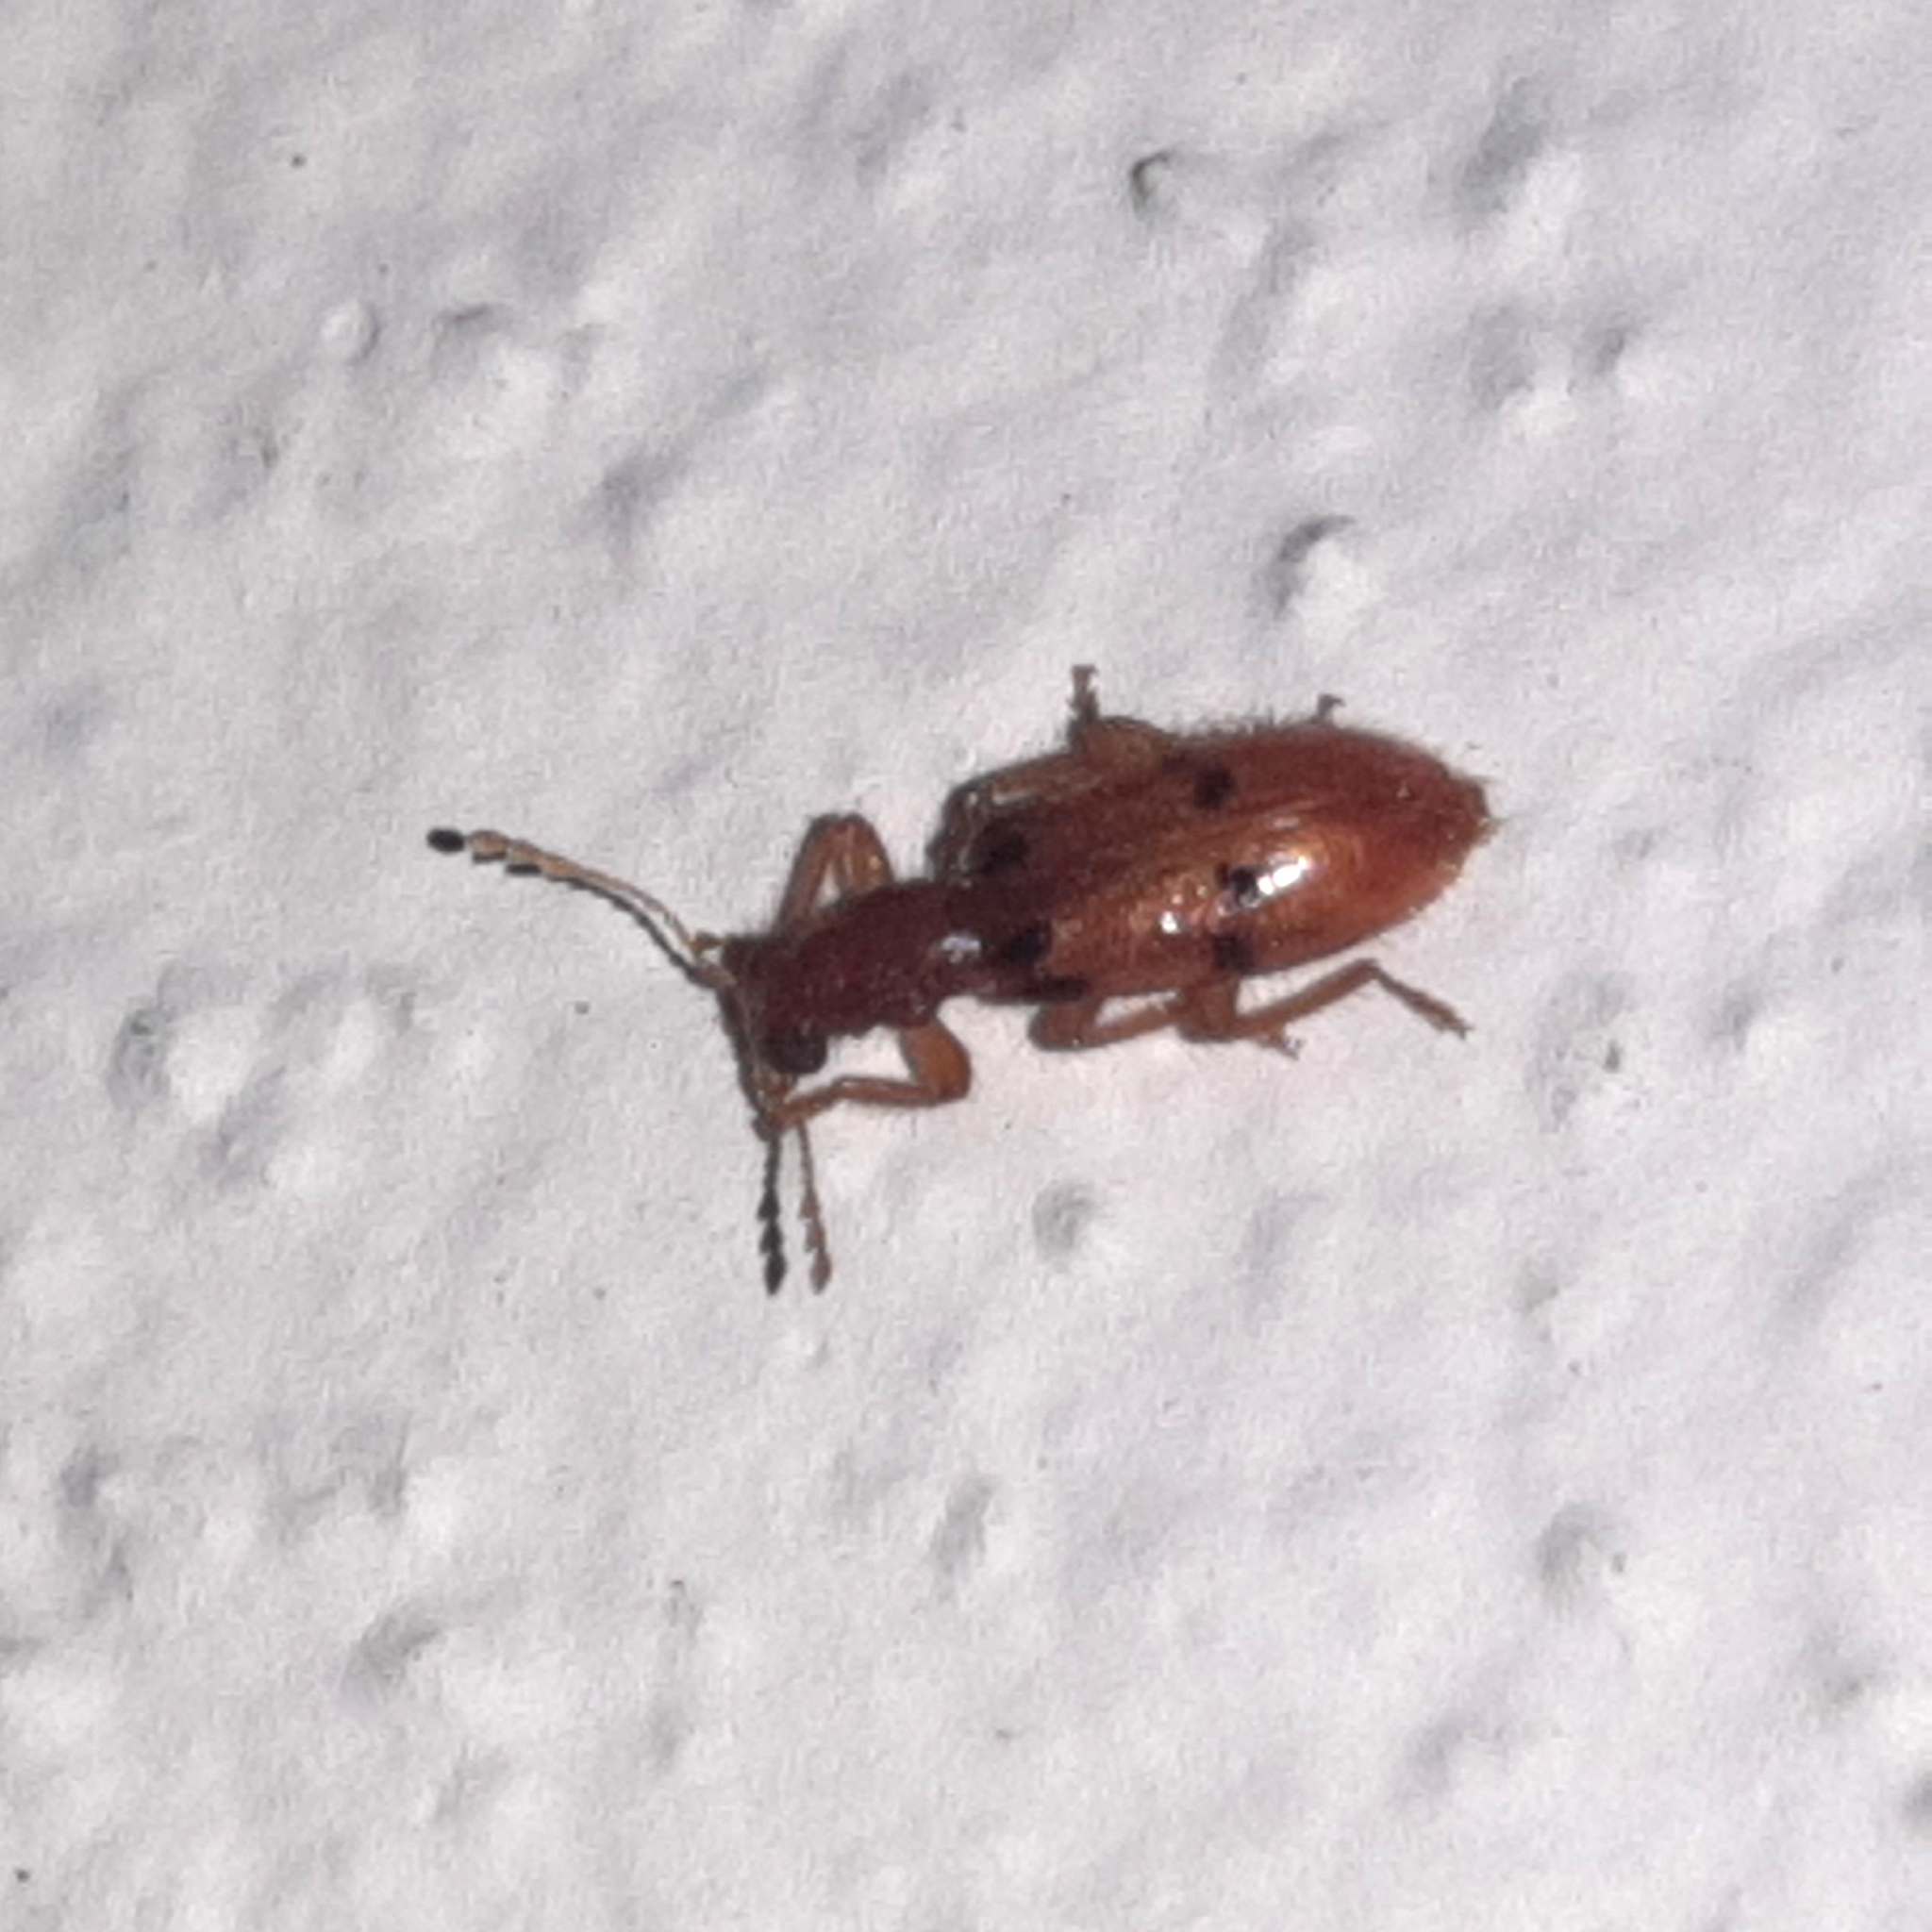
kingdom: Animalia
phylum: Arthropoda
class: Insecta
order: Coleoptera
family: Cleridae
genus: Muisca
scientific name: Muisca octonotata
